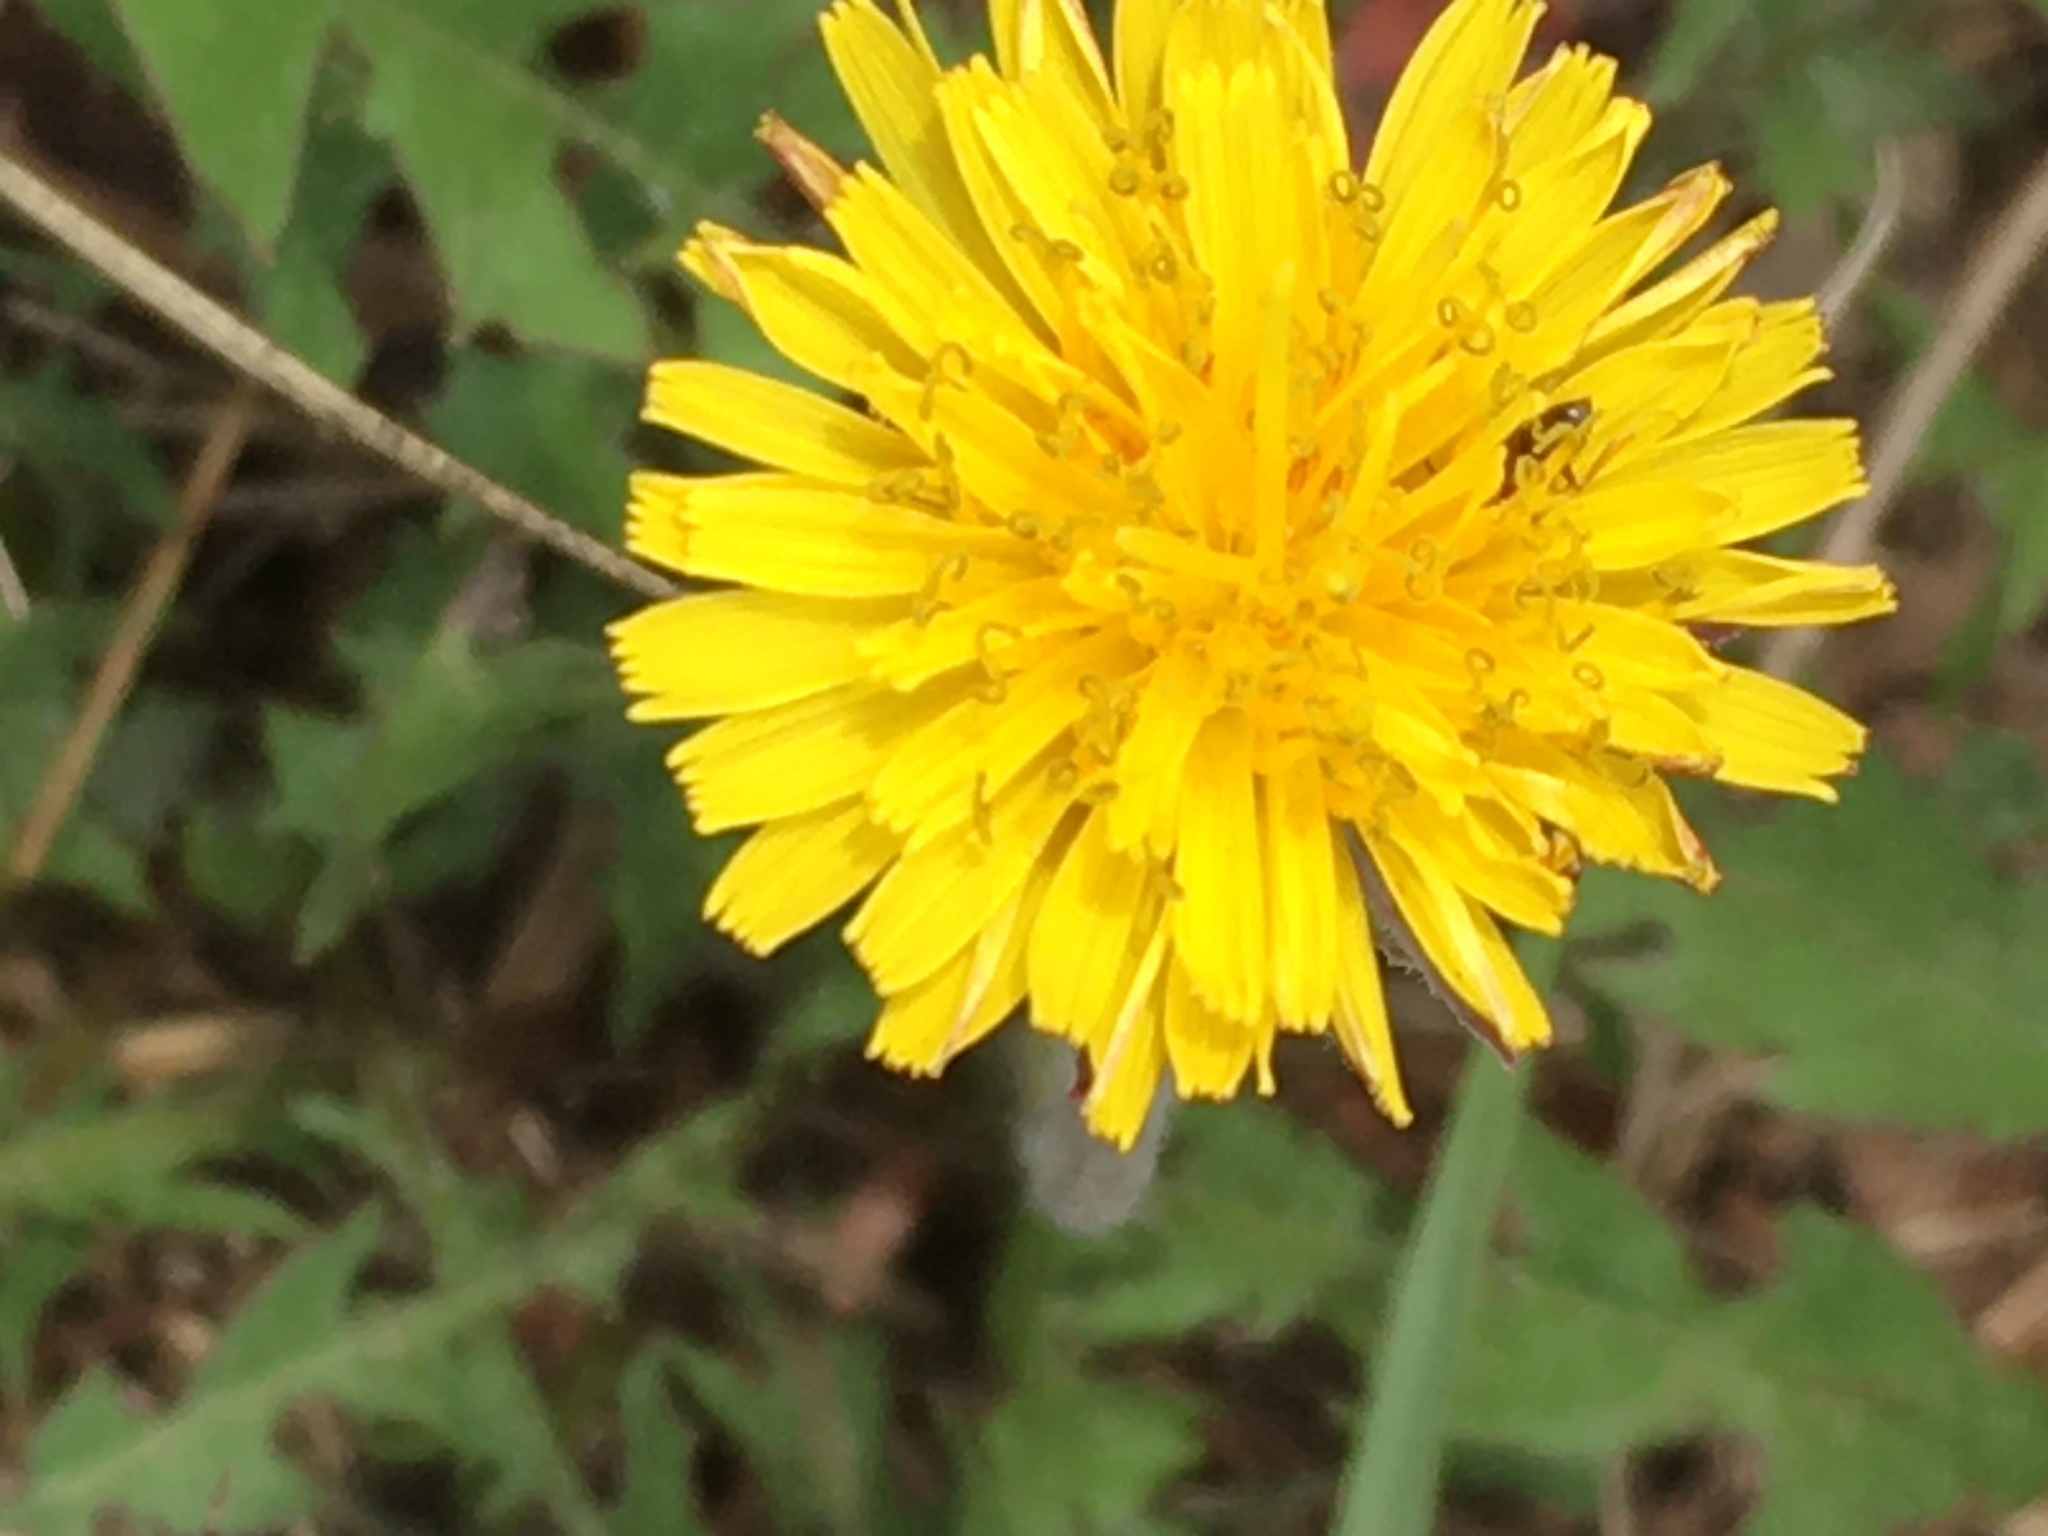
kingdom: Plantae
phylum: Tracheophyta
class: Magnoliopsida
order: Asterales
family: Asteraceae
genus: Taraxacum
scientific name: Taraxacum officinale
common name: Common dandelion
